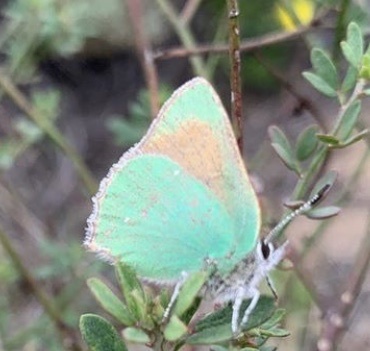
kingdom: Animalia
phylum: Arthropoda
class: Insecta
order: Lepidoptera
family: Lycaenidae
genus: Callophrys
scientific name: Callophrys dumetorum
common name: Bramble hairstreak
